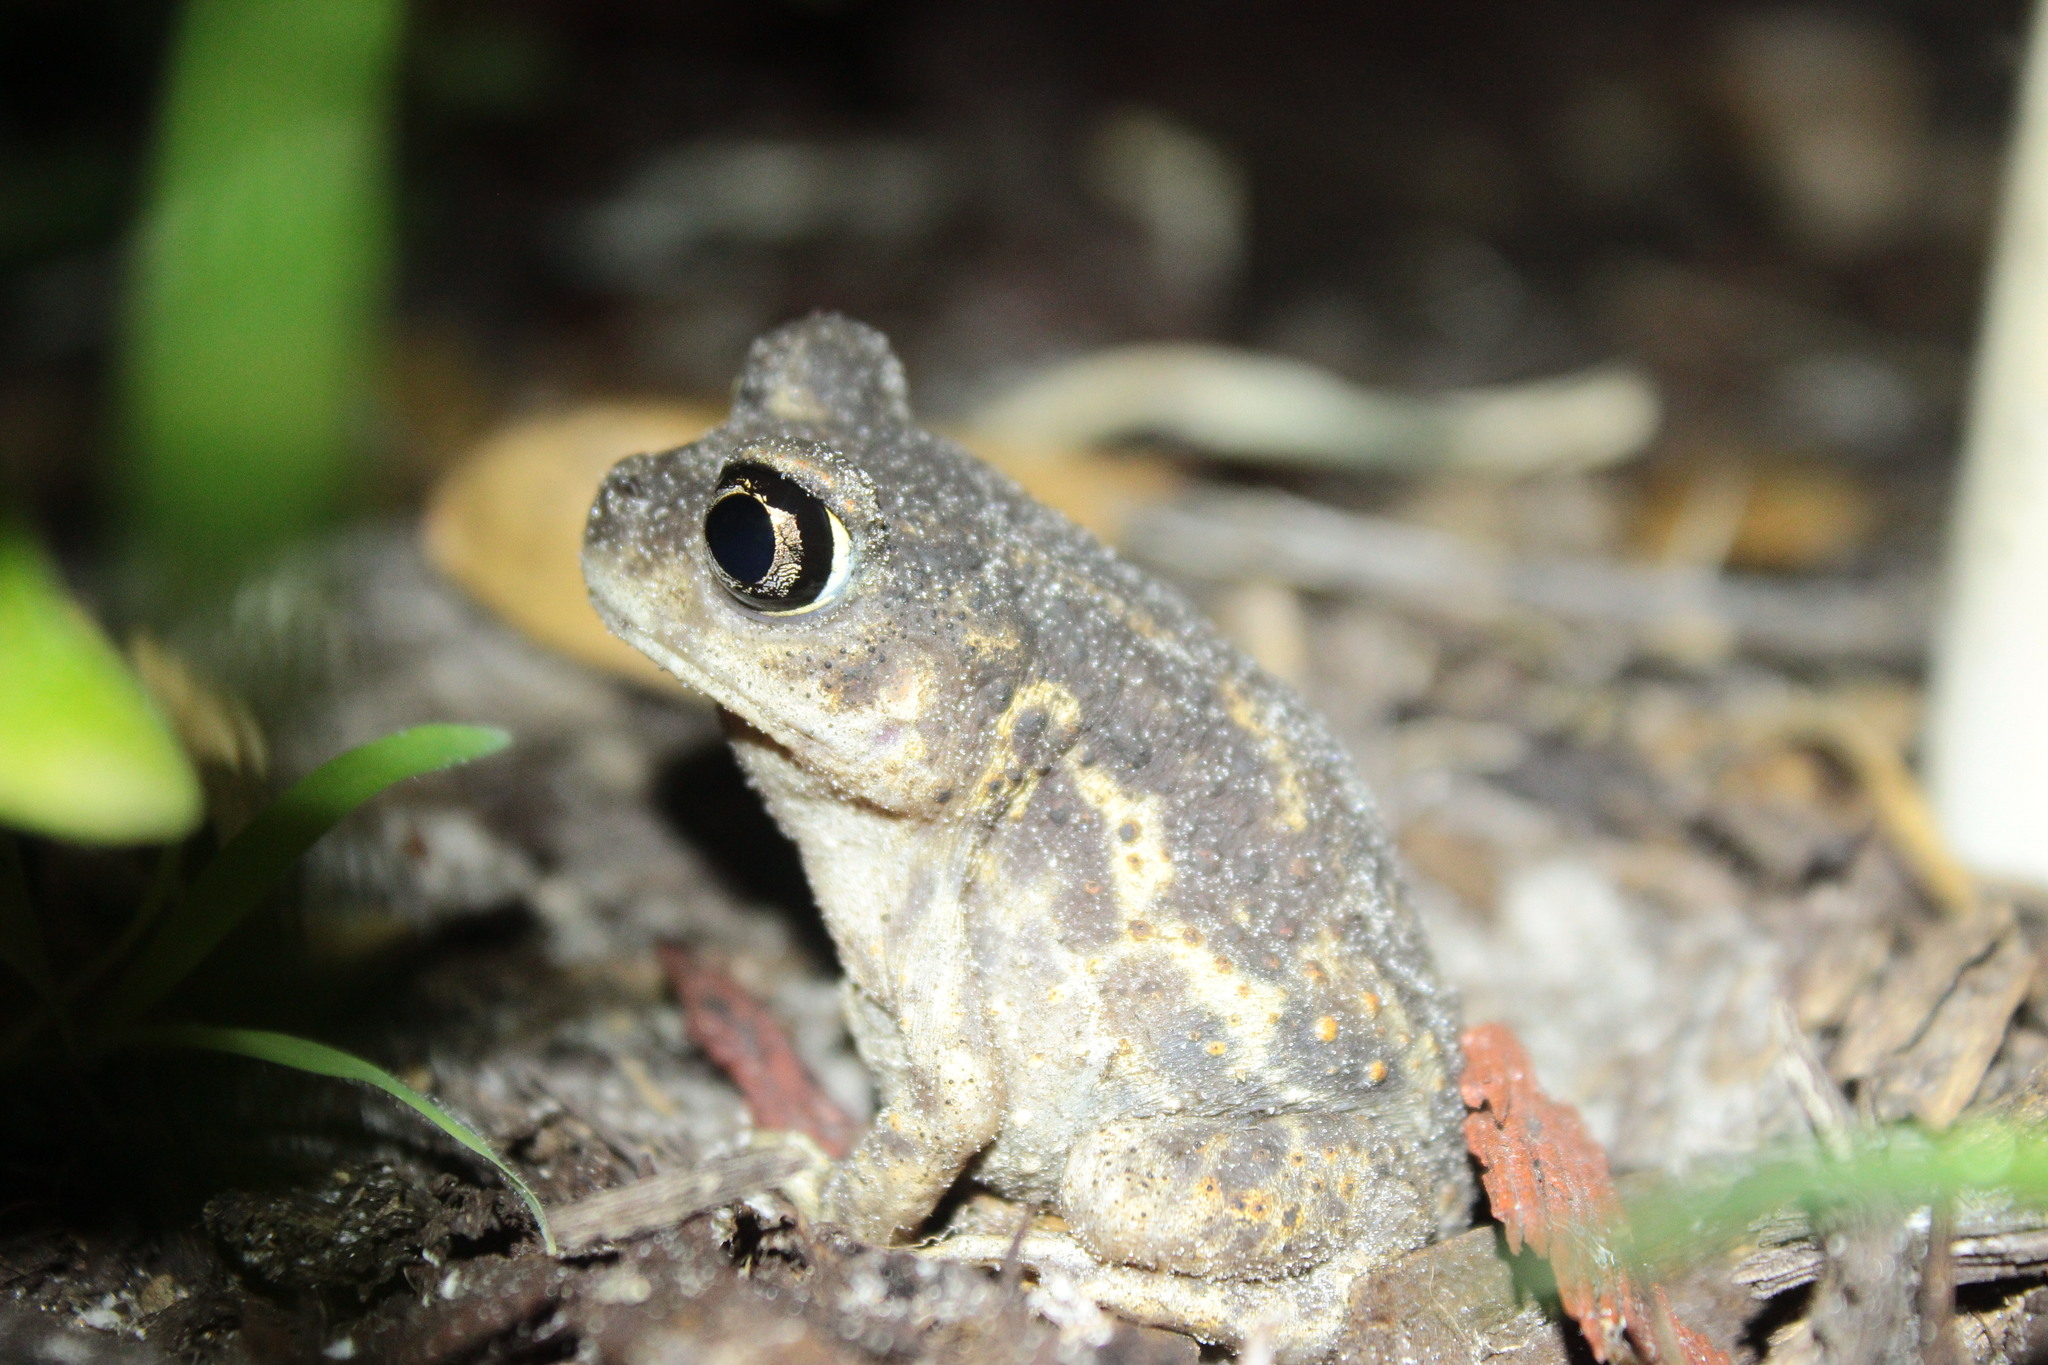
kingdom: Animalia
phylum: Chordata
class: Amphibia
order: Anura
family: Scaphiopodidae
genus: Scaphiopus
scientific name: Scaphiopus holbrookii
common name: Eastern spadefoot toad
